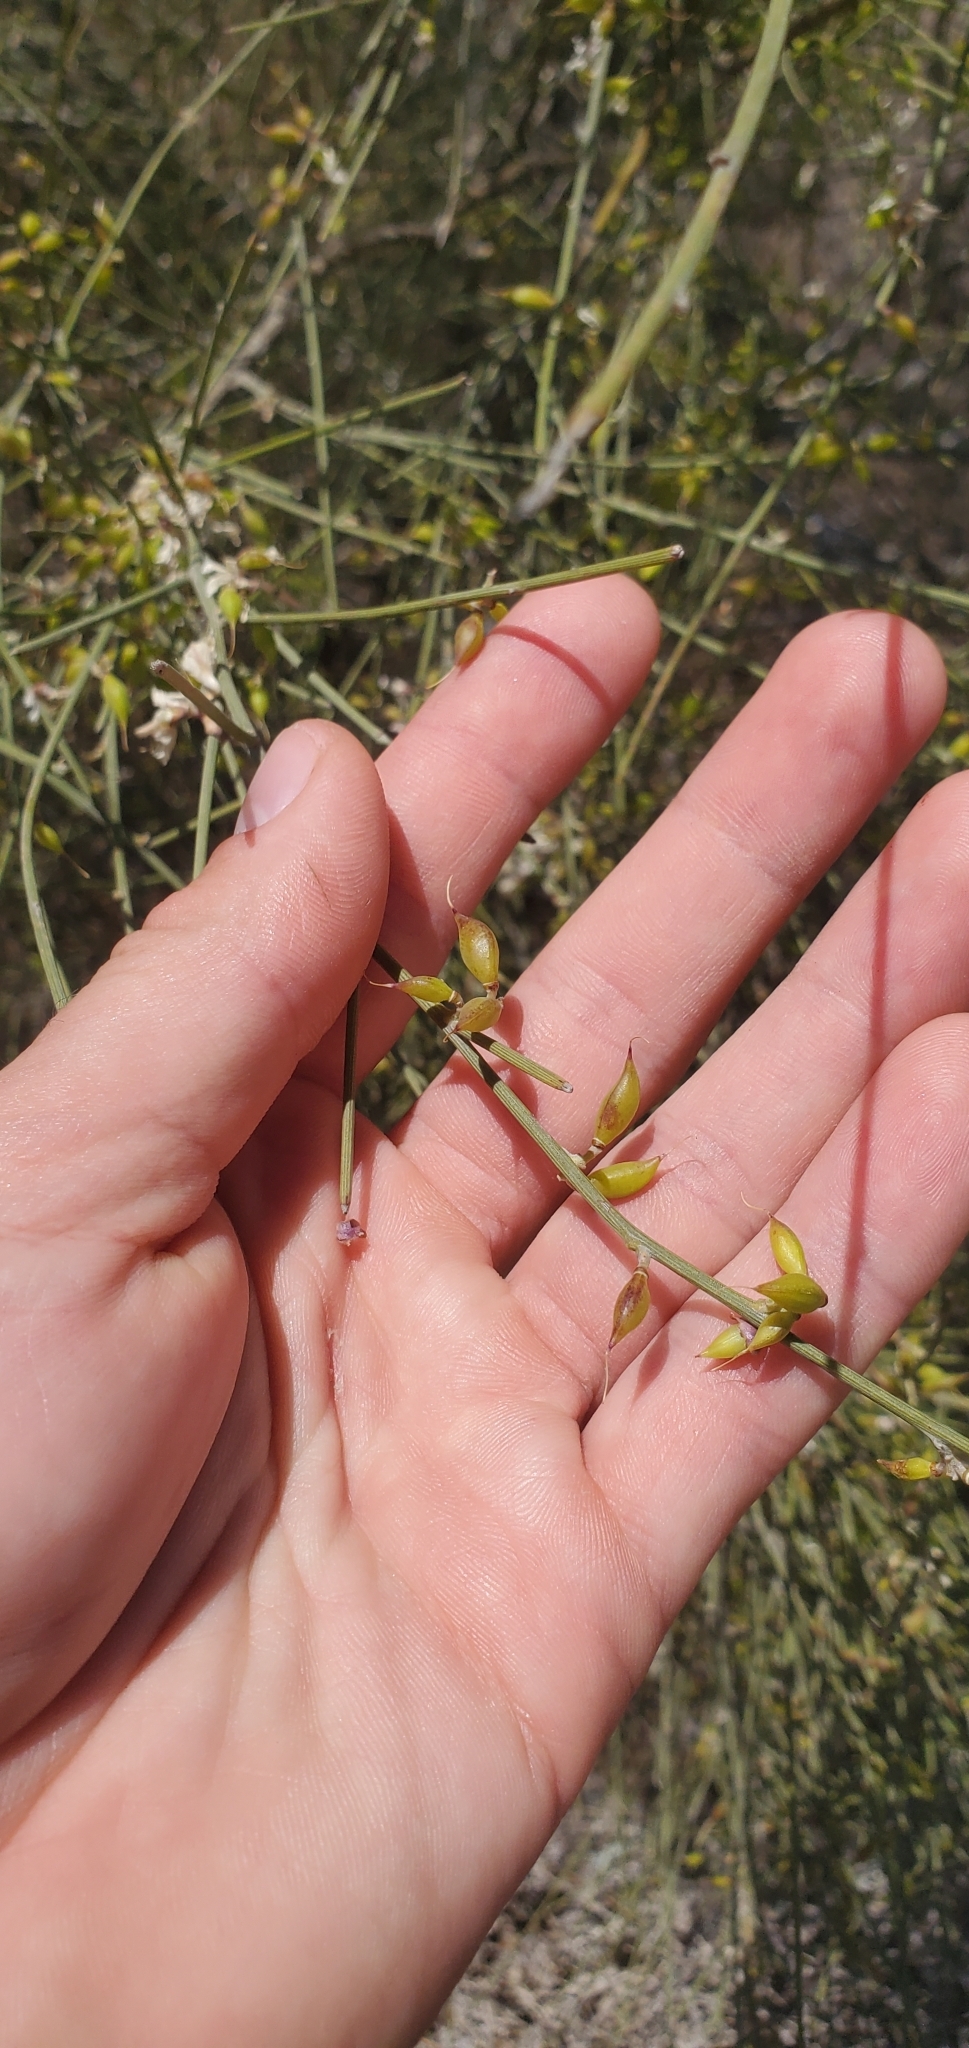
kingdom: Plantae
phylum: Tracheophyta
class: Magnoliopsida
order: Fabales
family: Fabaceae
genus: Retama
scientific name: Retama raetam
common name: Retem
